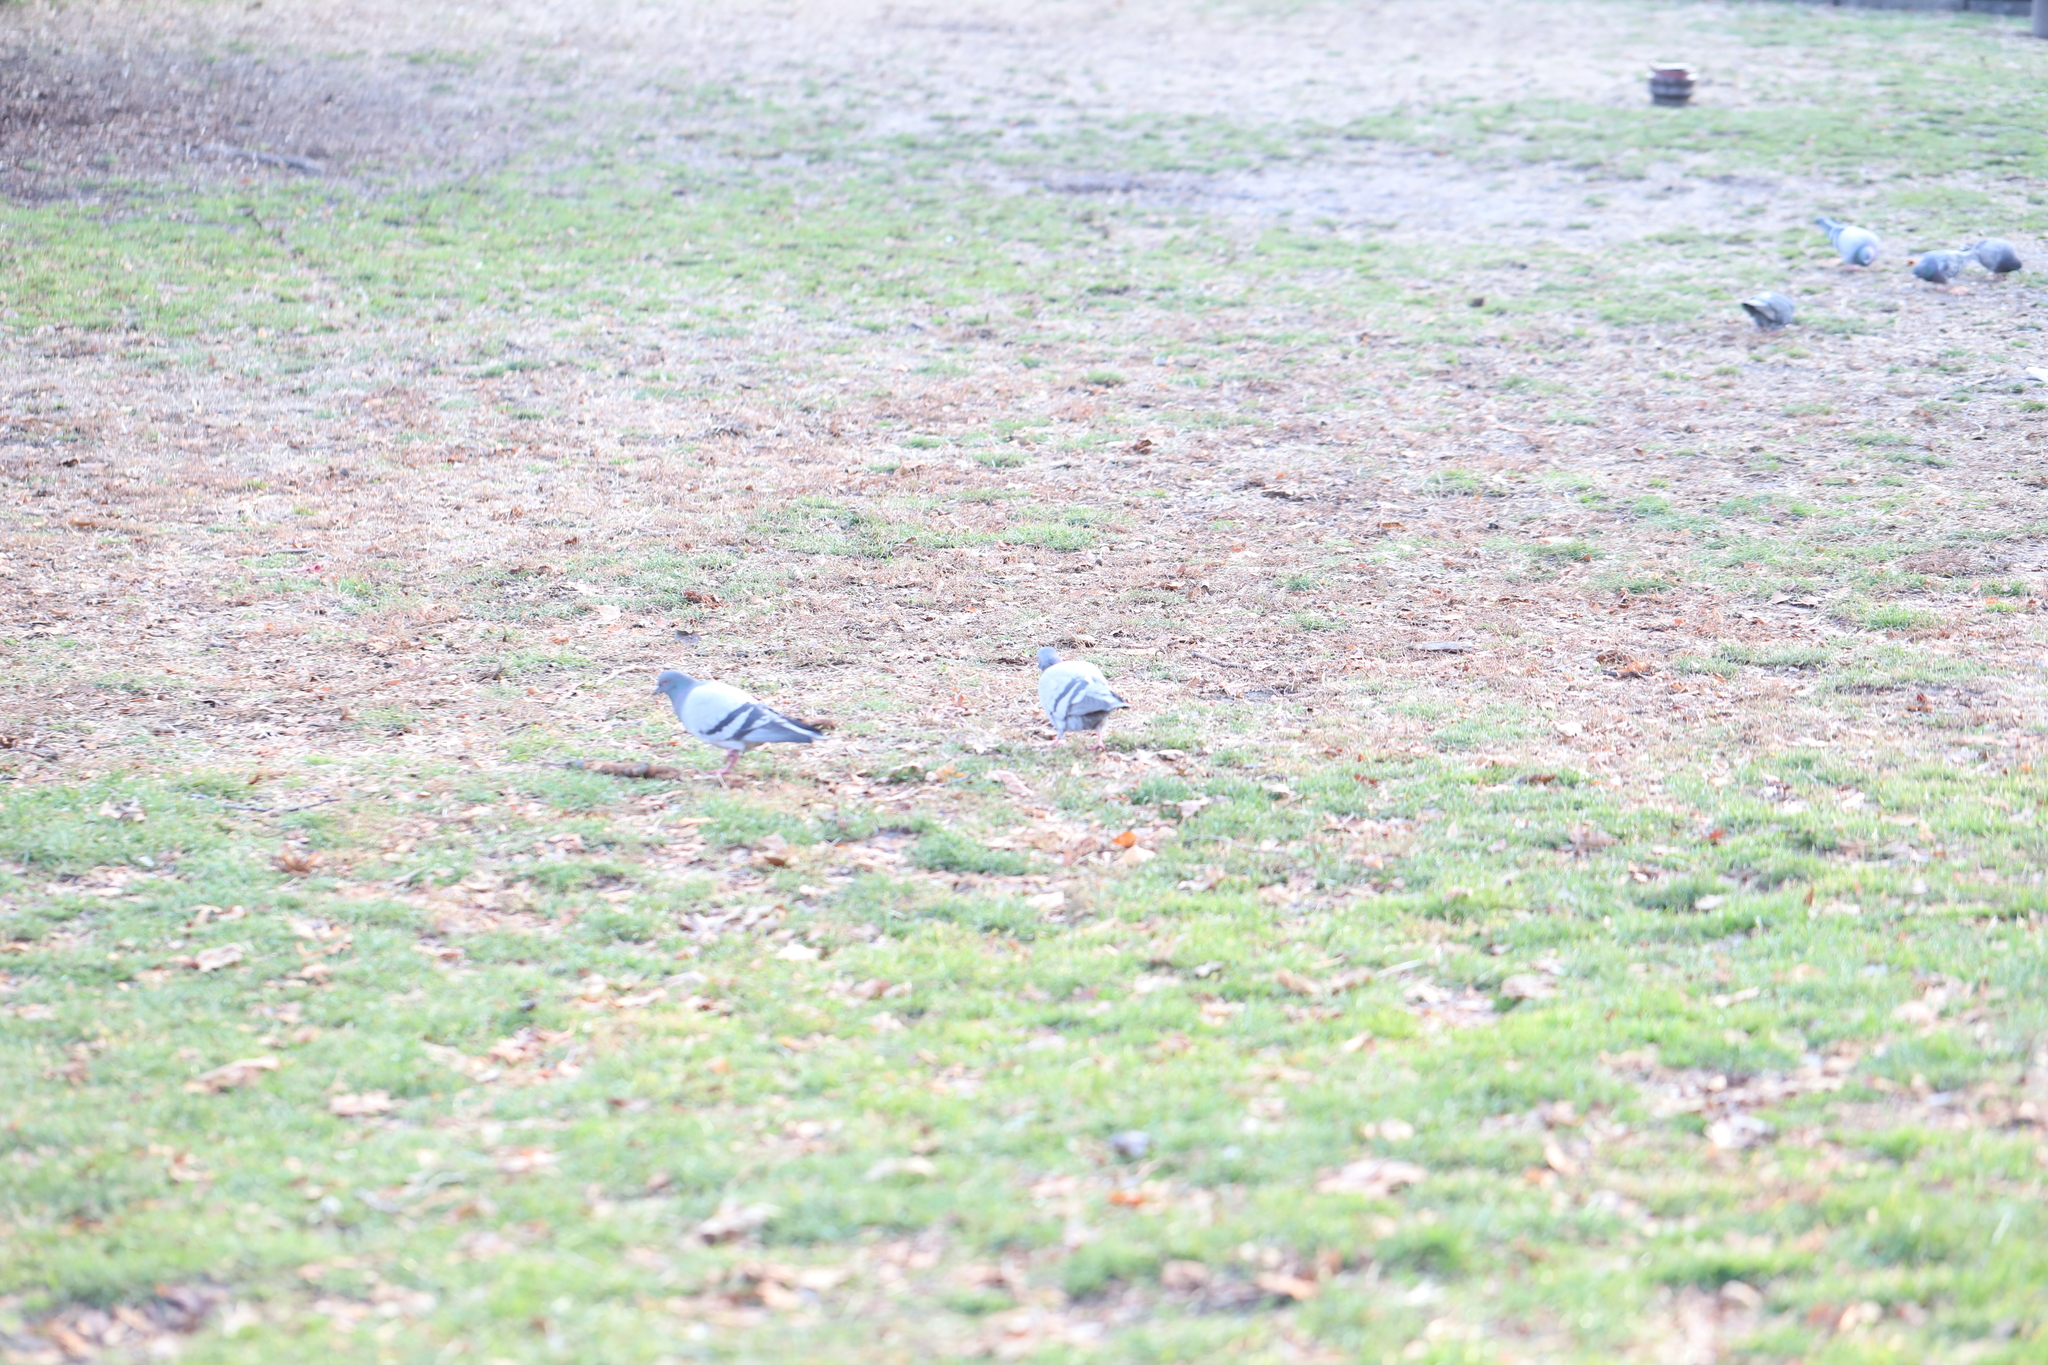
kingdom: Animalia
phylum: Chordata
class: Aves
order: Columbiformes
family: Columbidae
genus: Columba
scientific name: Columba livia
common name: Rock pigeon
